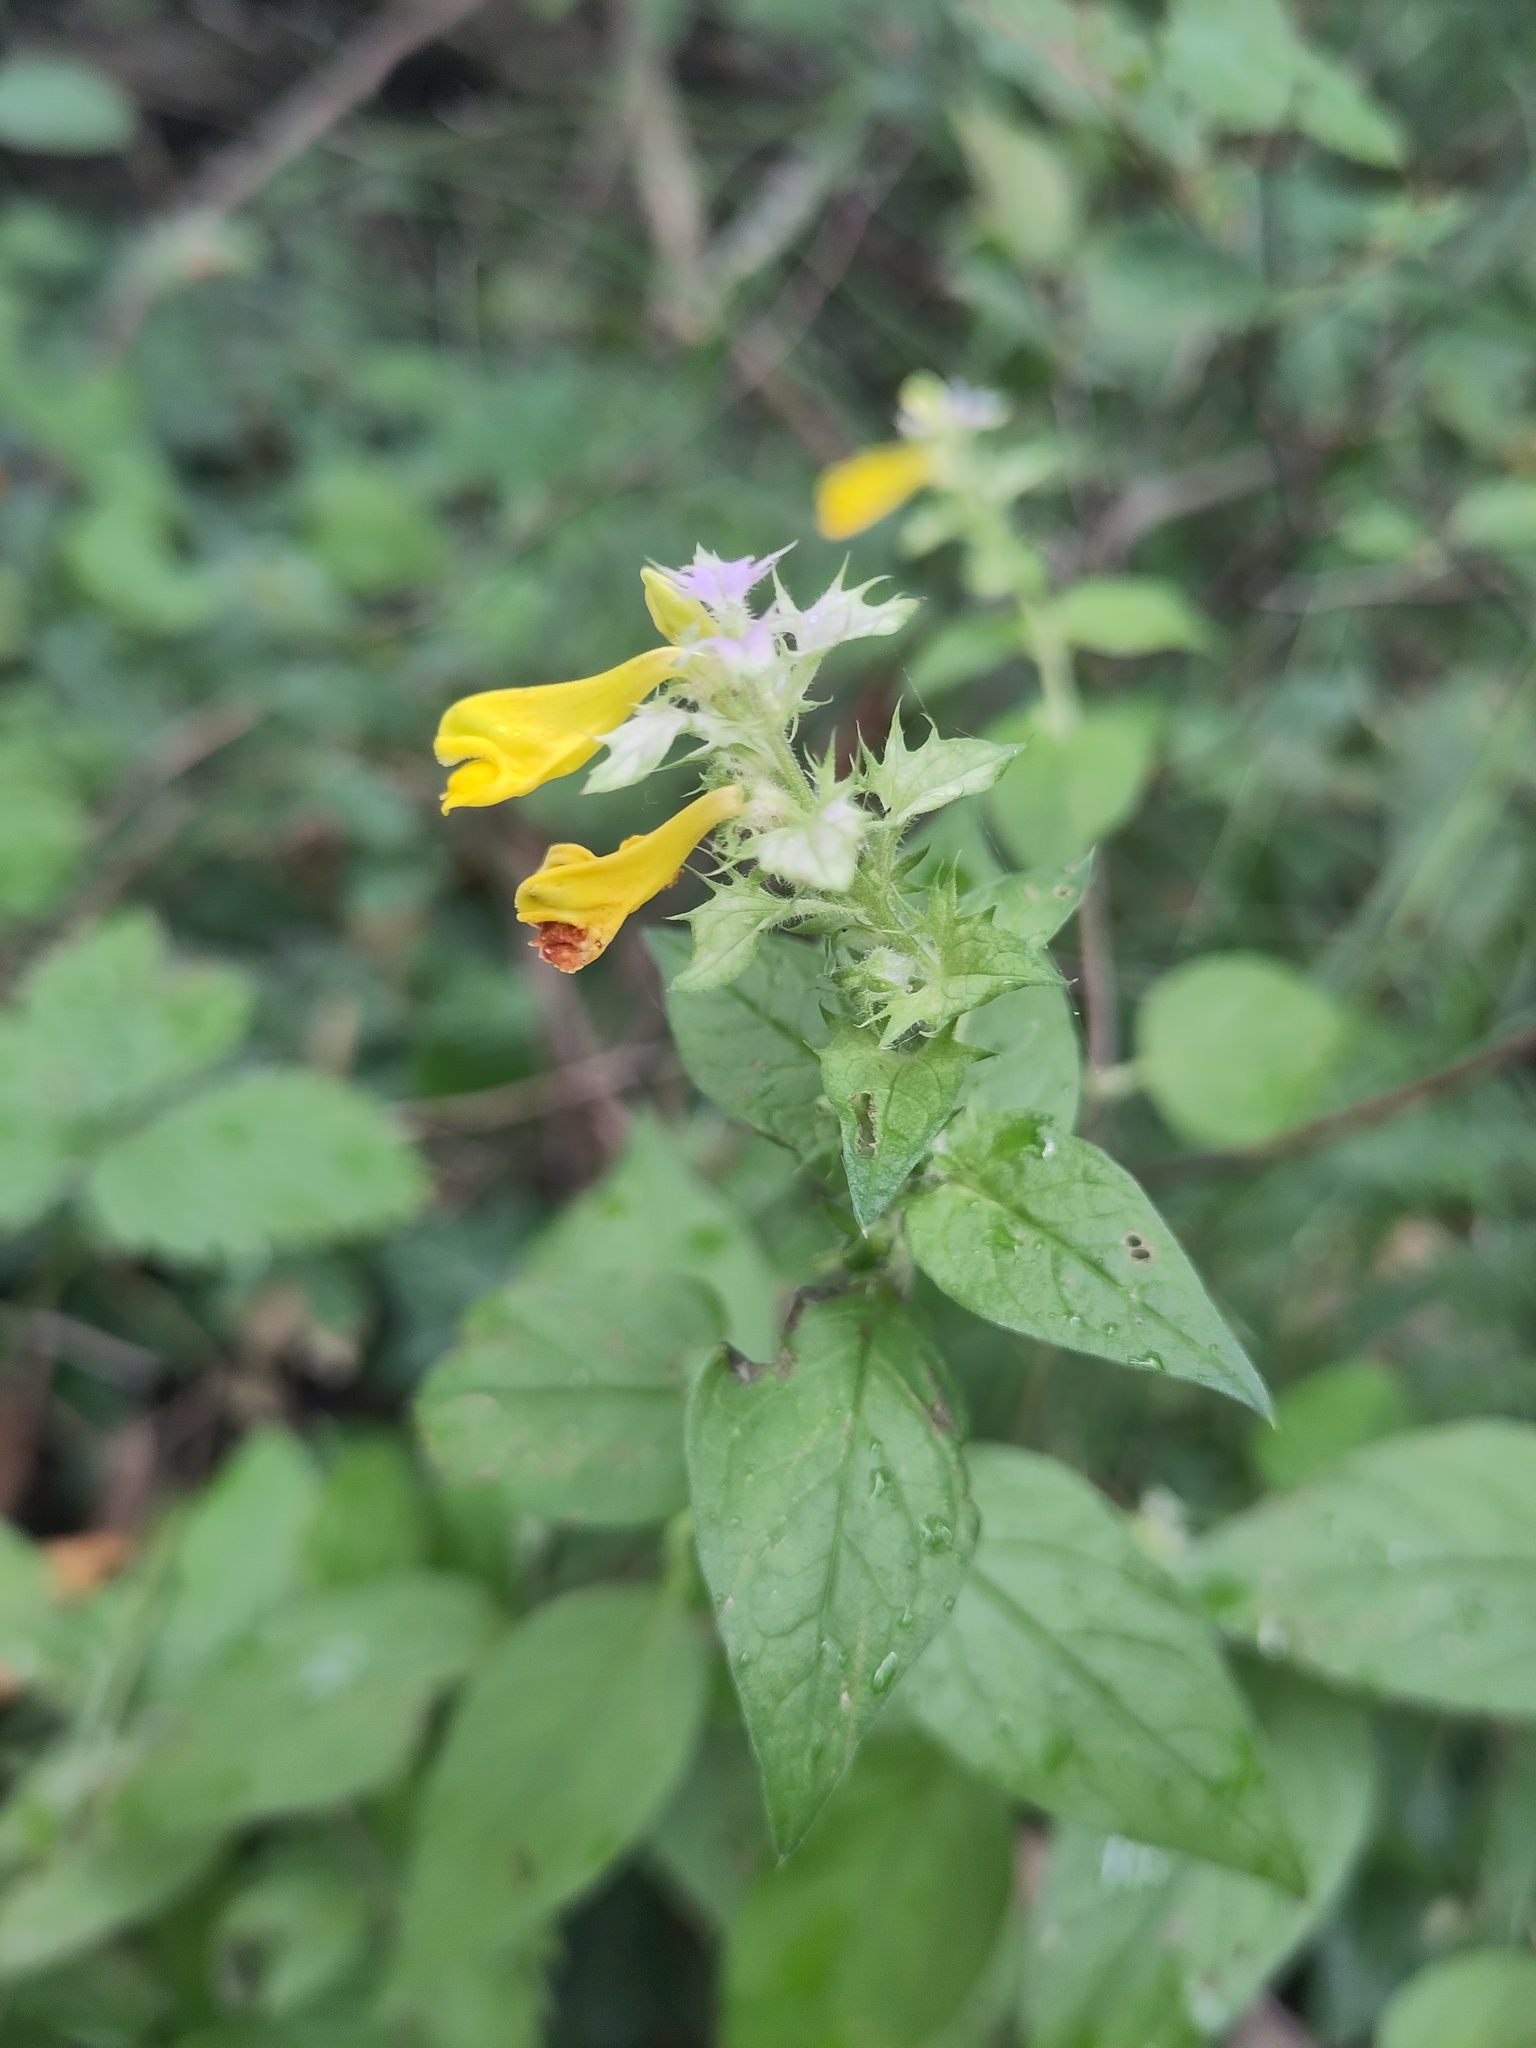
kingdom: Plantae
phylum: Tracheophyta
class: Magnoliopsida
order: Lamiales
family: Orobanchaceae
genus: Melampyrum
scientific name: Melampyrum nemorosum
